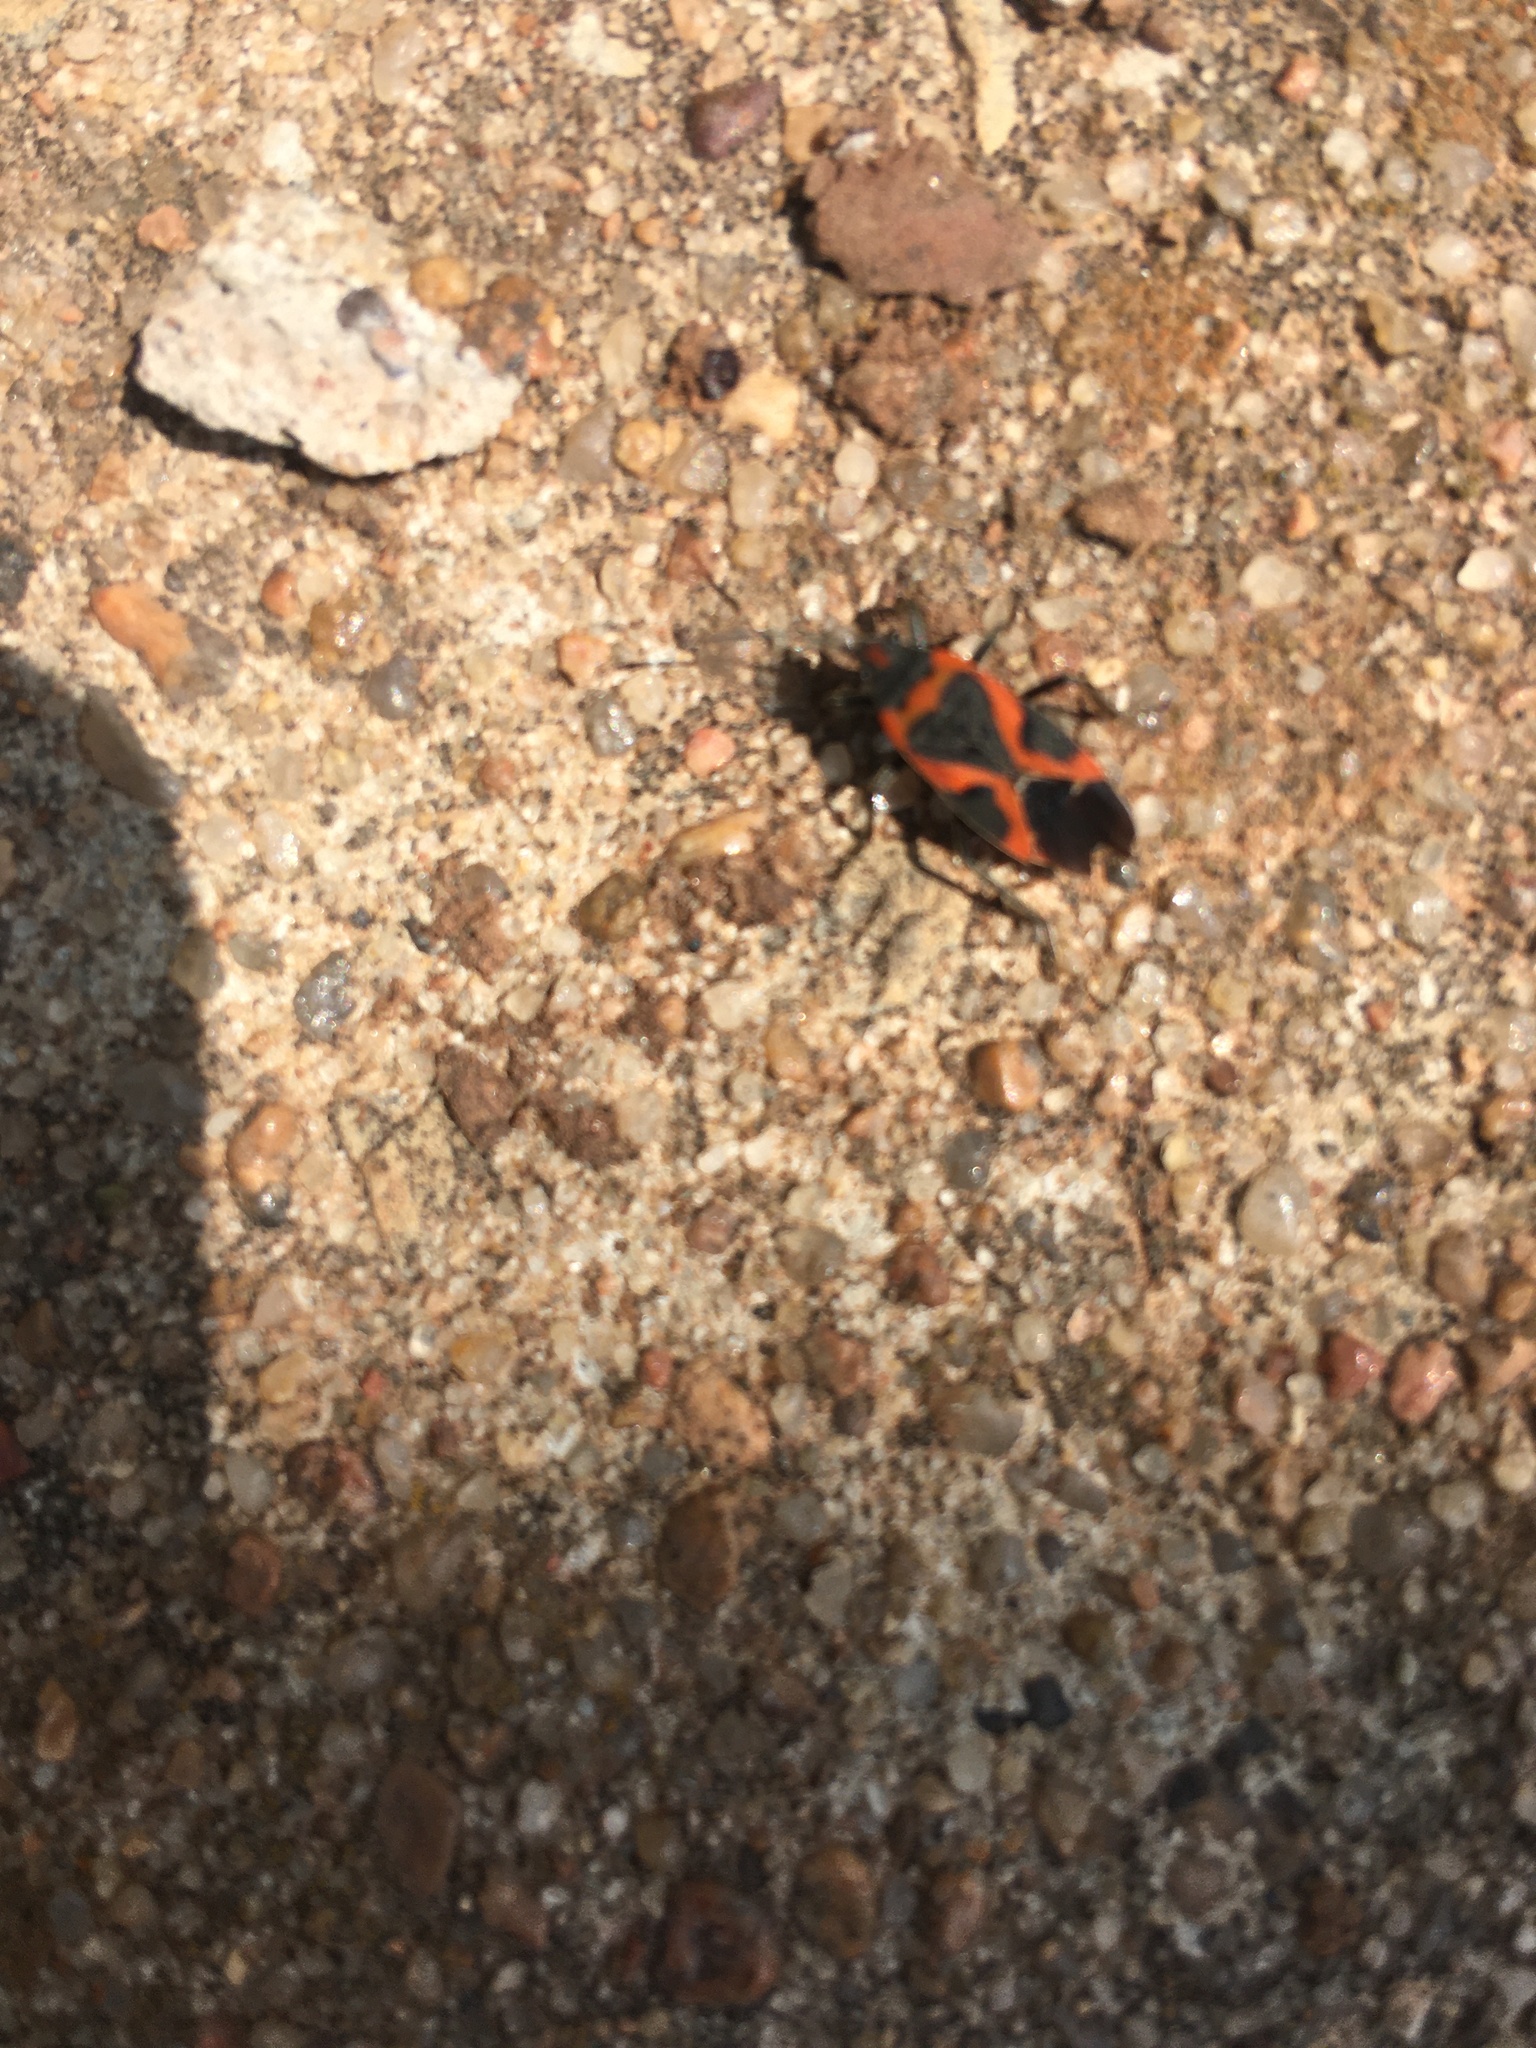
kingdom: Animalia
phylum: Arthropoda
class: Insecta
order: Hemiptera
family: Lygaeidae
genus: Lygaeus
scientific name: Lygaeus kalmii
